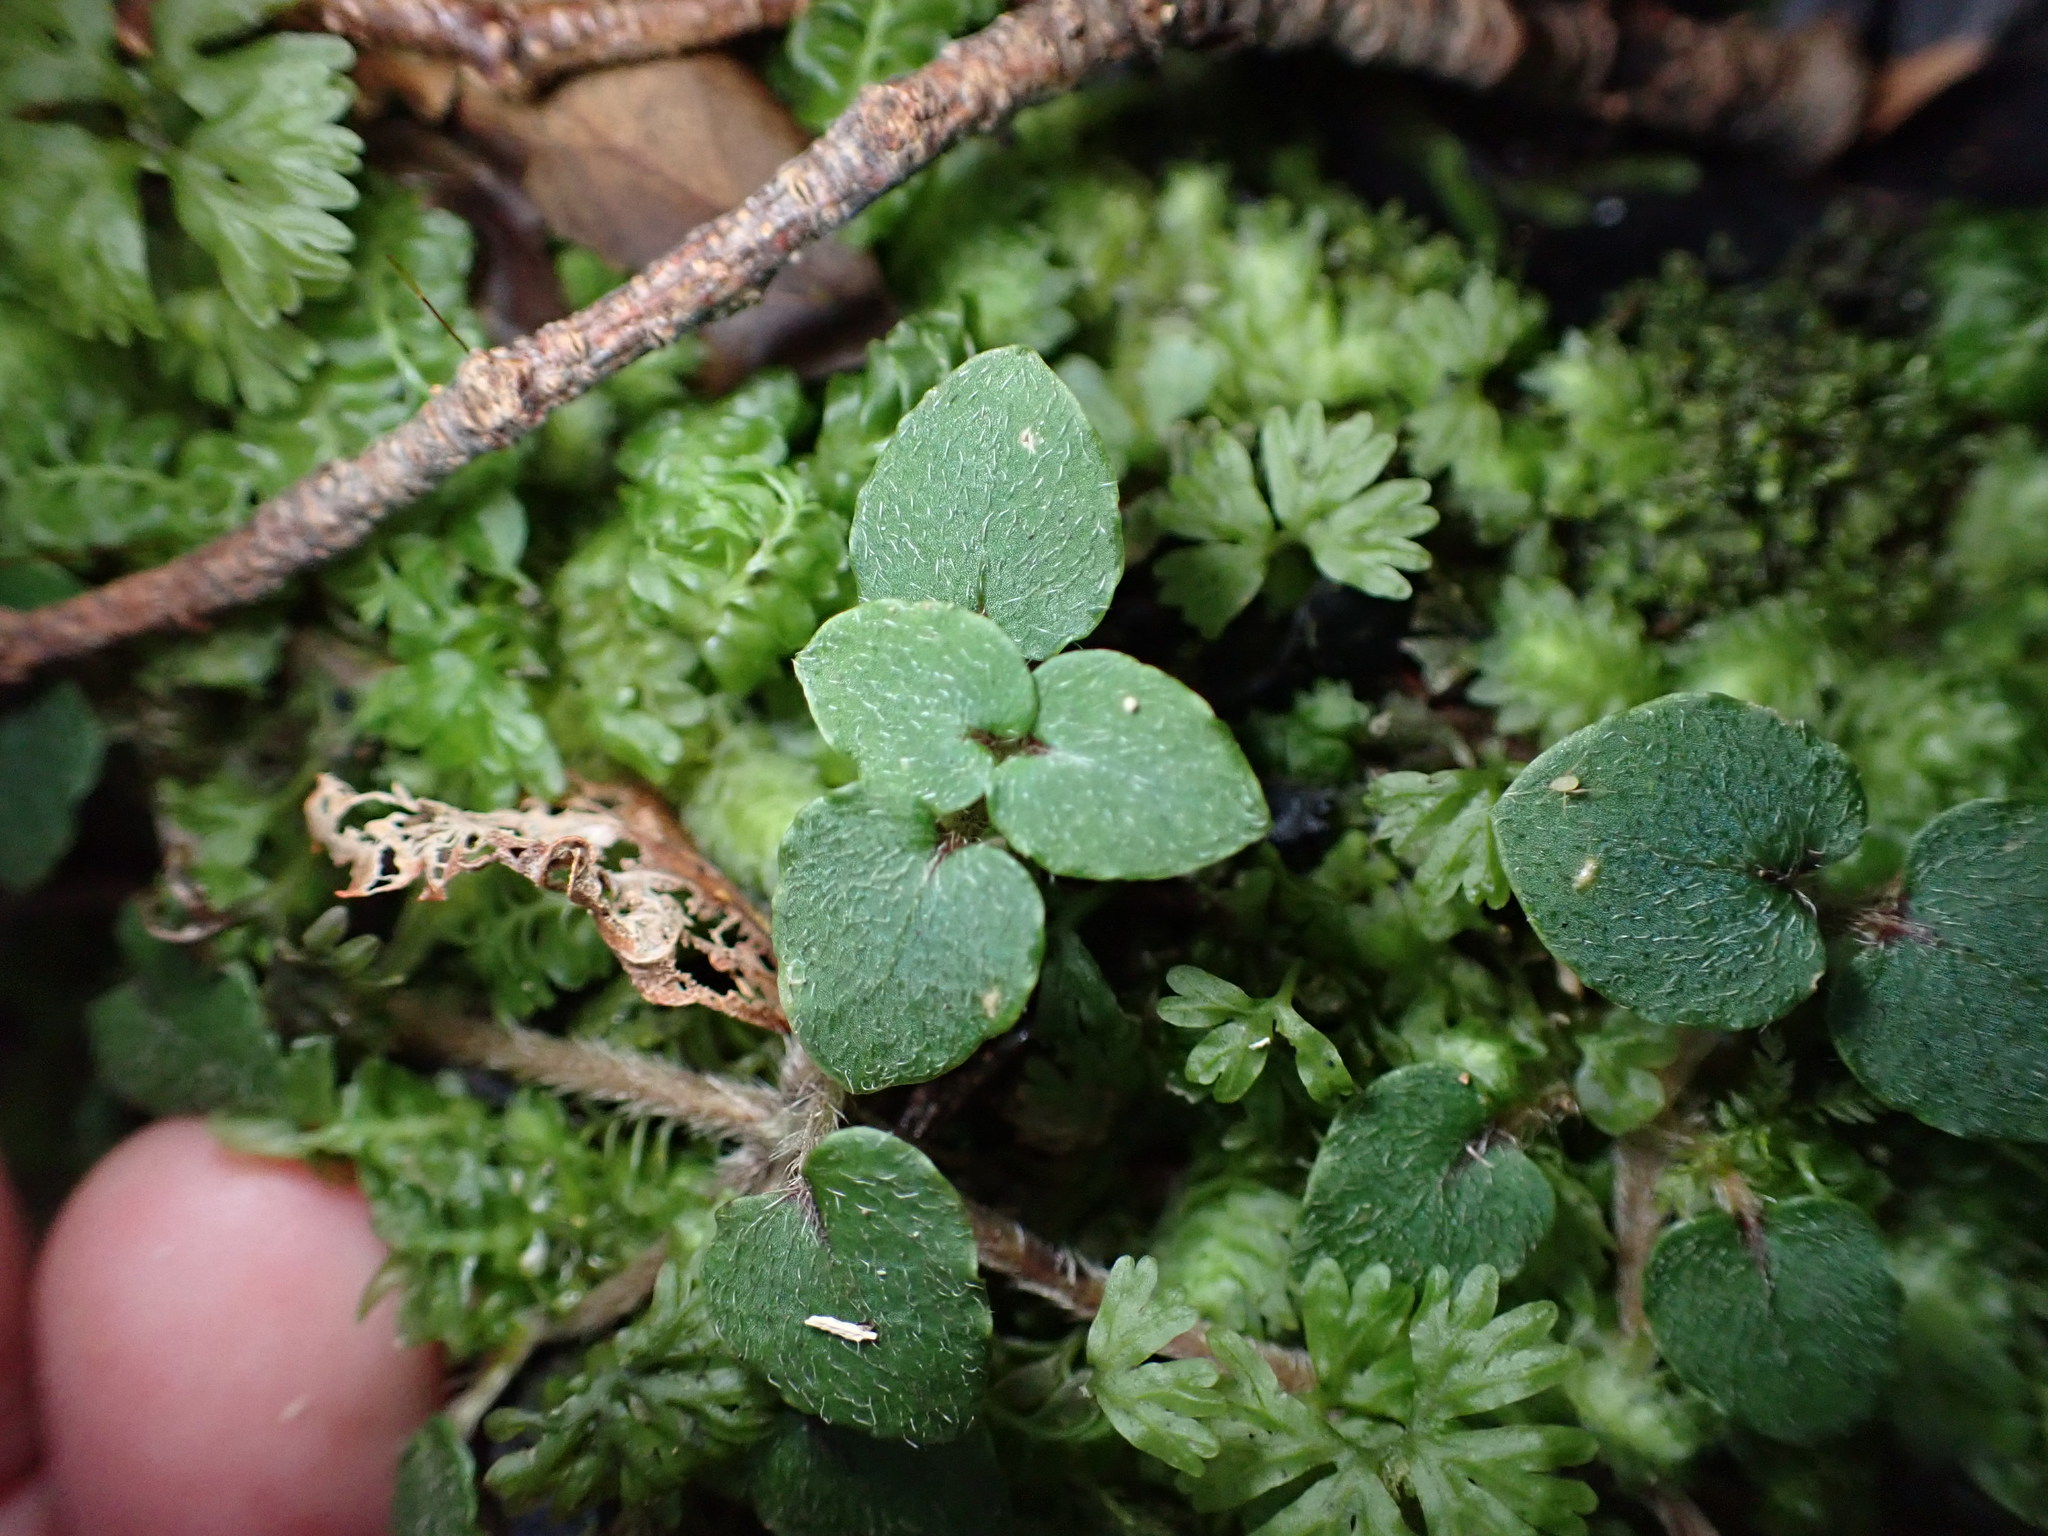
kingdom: Plantae
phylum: Tracheophyta
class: Magnoliopsida
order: Gentianales
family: Rubiaceae
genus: Nertera
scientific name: Nertera villosa
